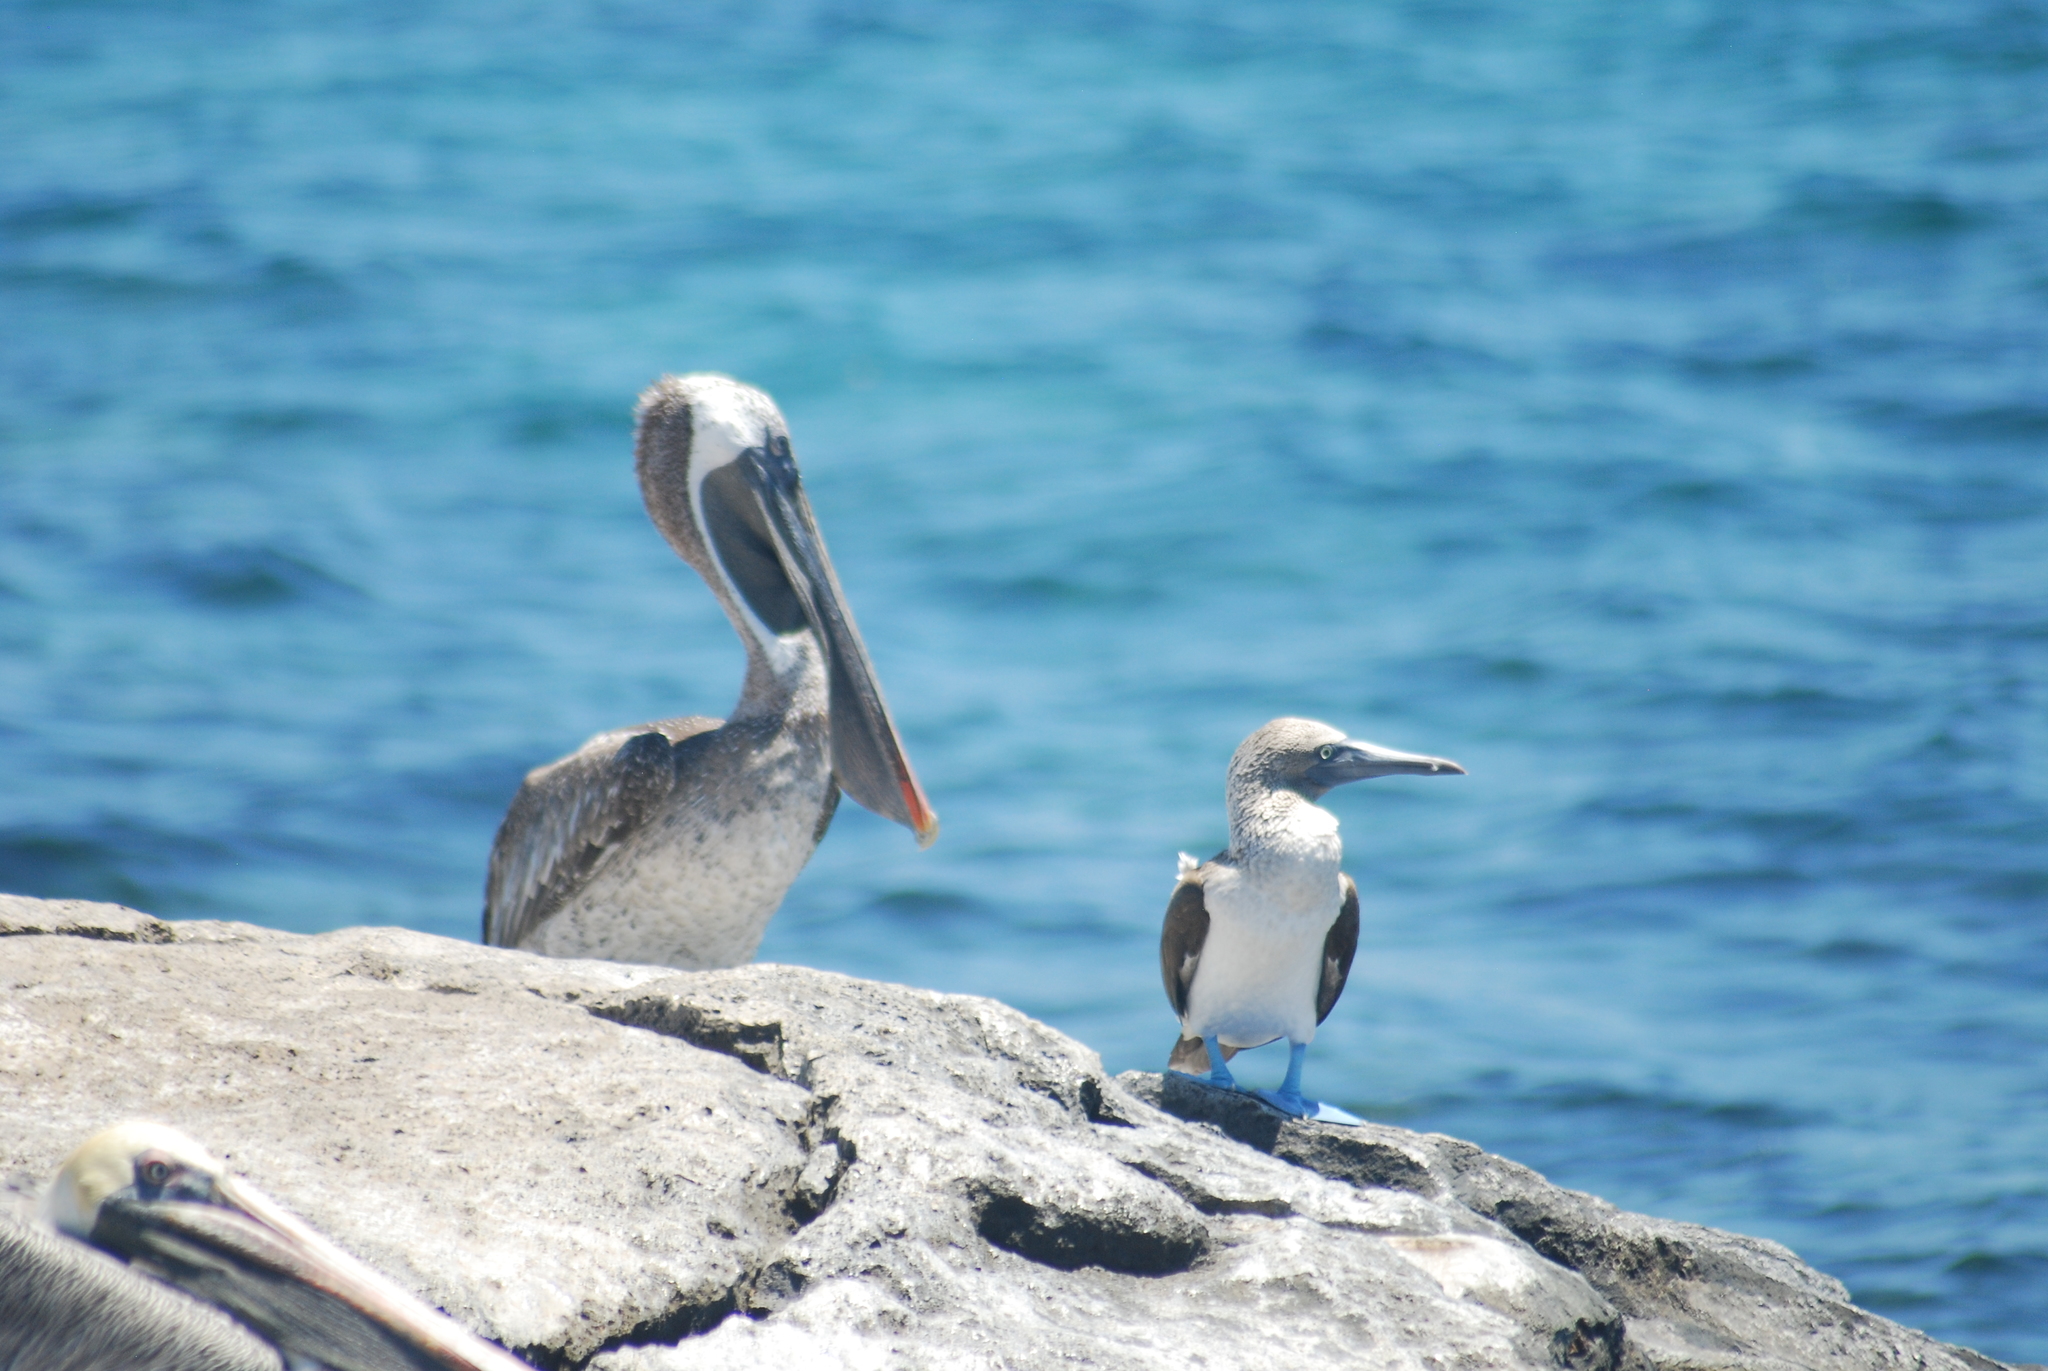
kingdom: Animalia
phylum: Chordata
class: Aves
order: Suliformes
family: Sulidae
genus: Sula
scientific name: Sula nebouxii
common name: Blue-footed booby
